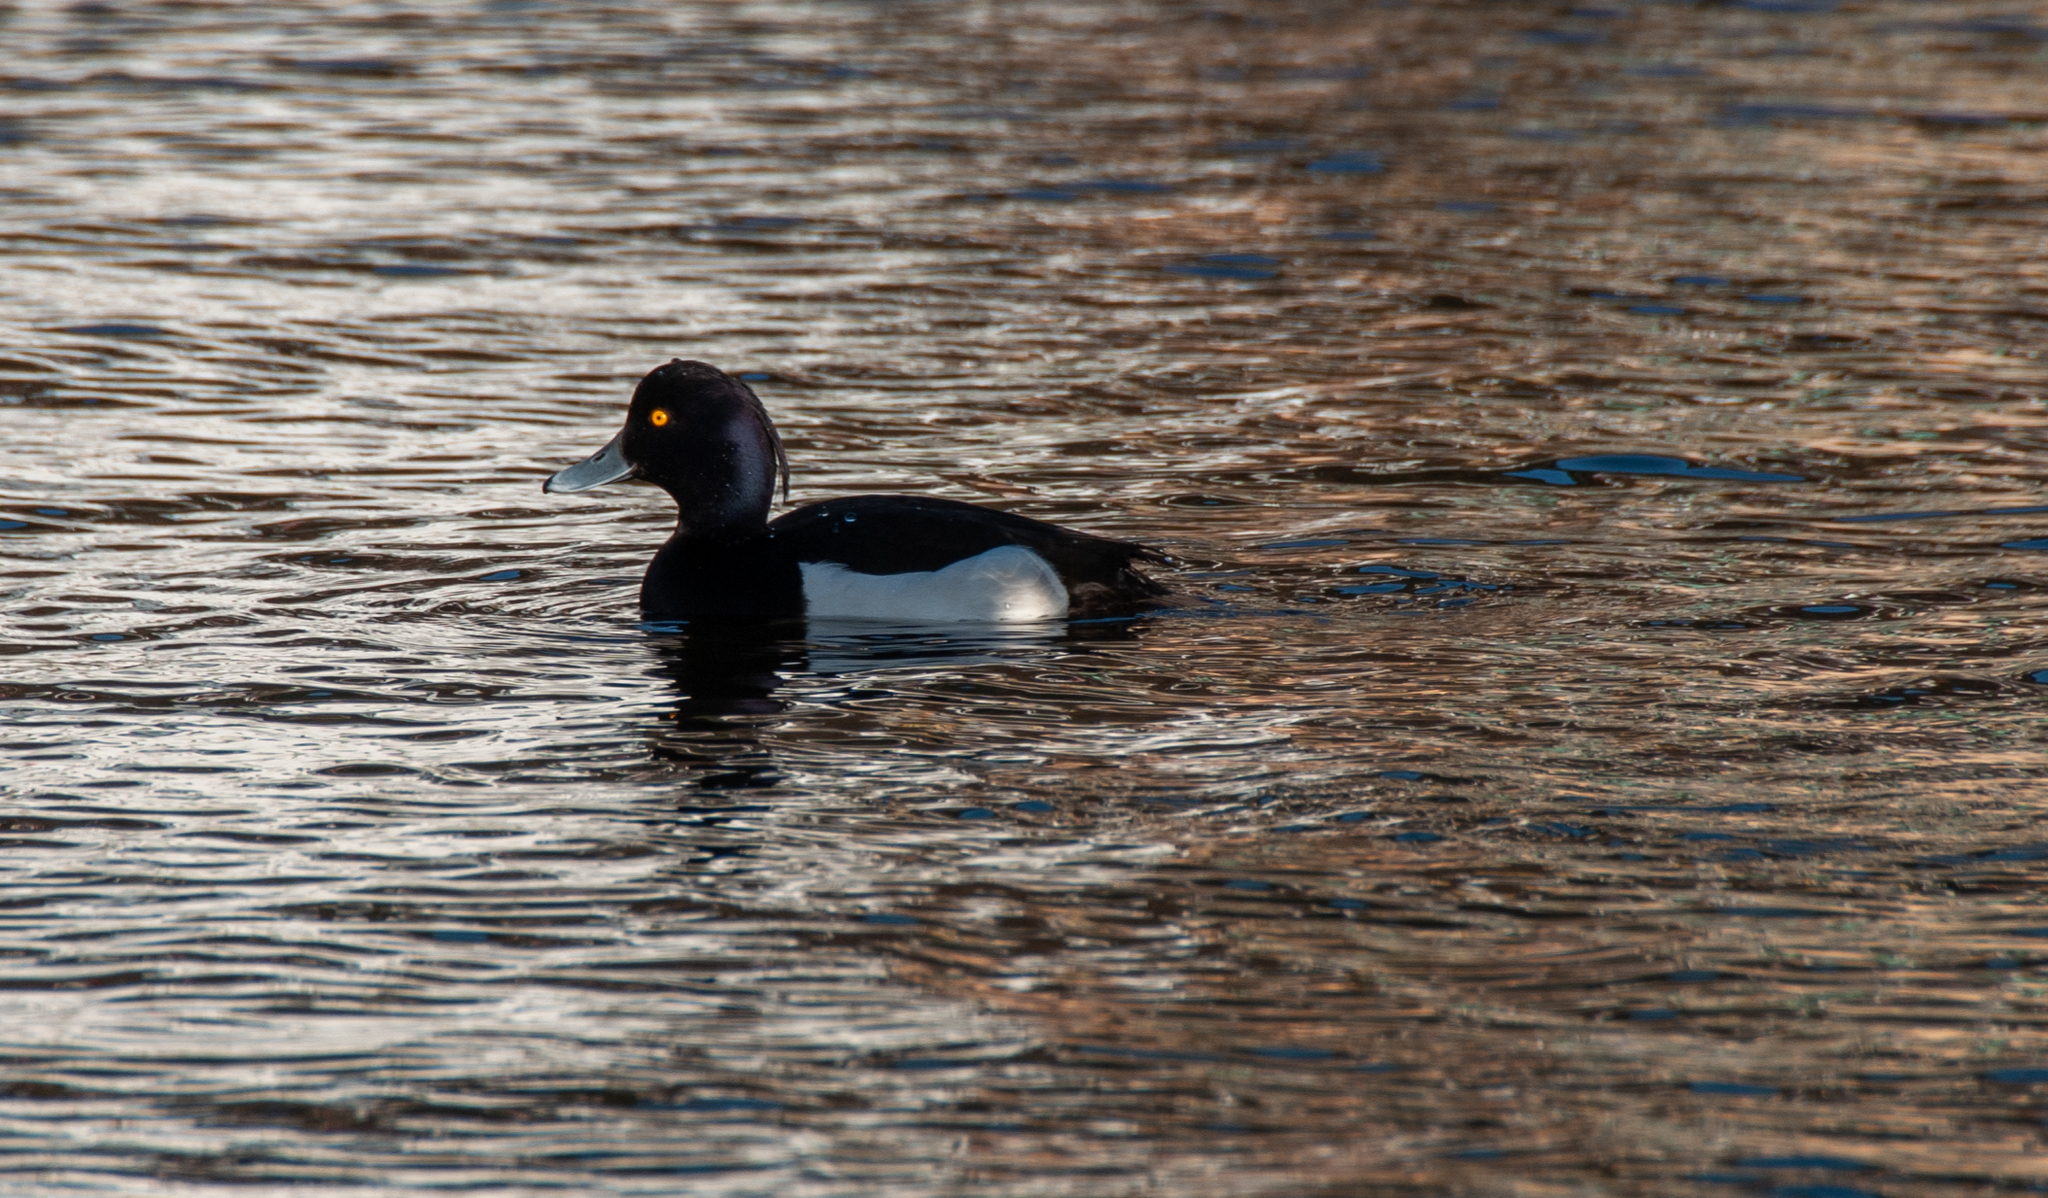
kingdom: Animalia
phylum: Chordata
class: Aves
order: Anseriformes
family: Anatidae
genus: Aythya
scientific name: Aythya fuligula
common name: Tufted duck
